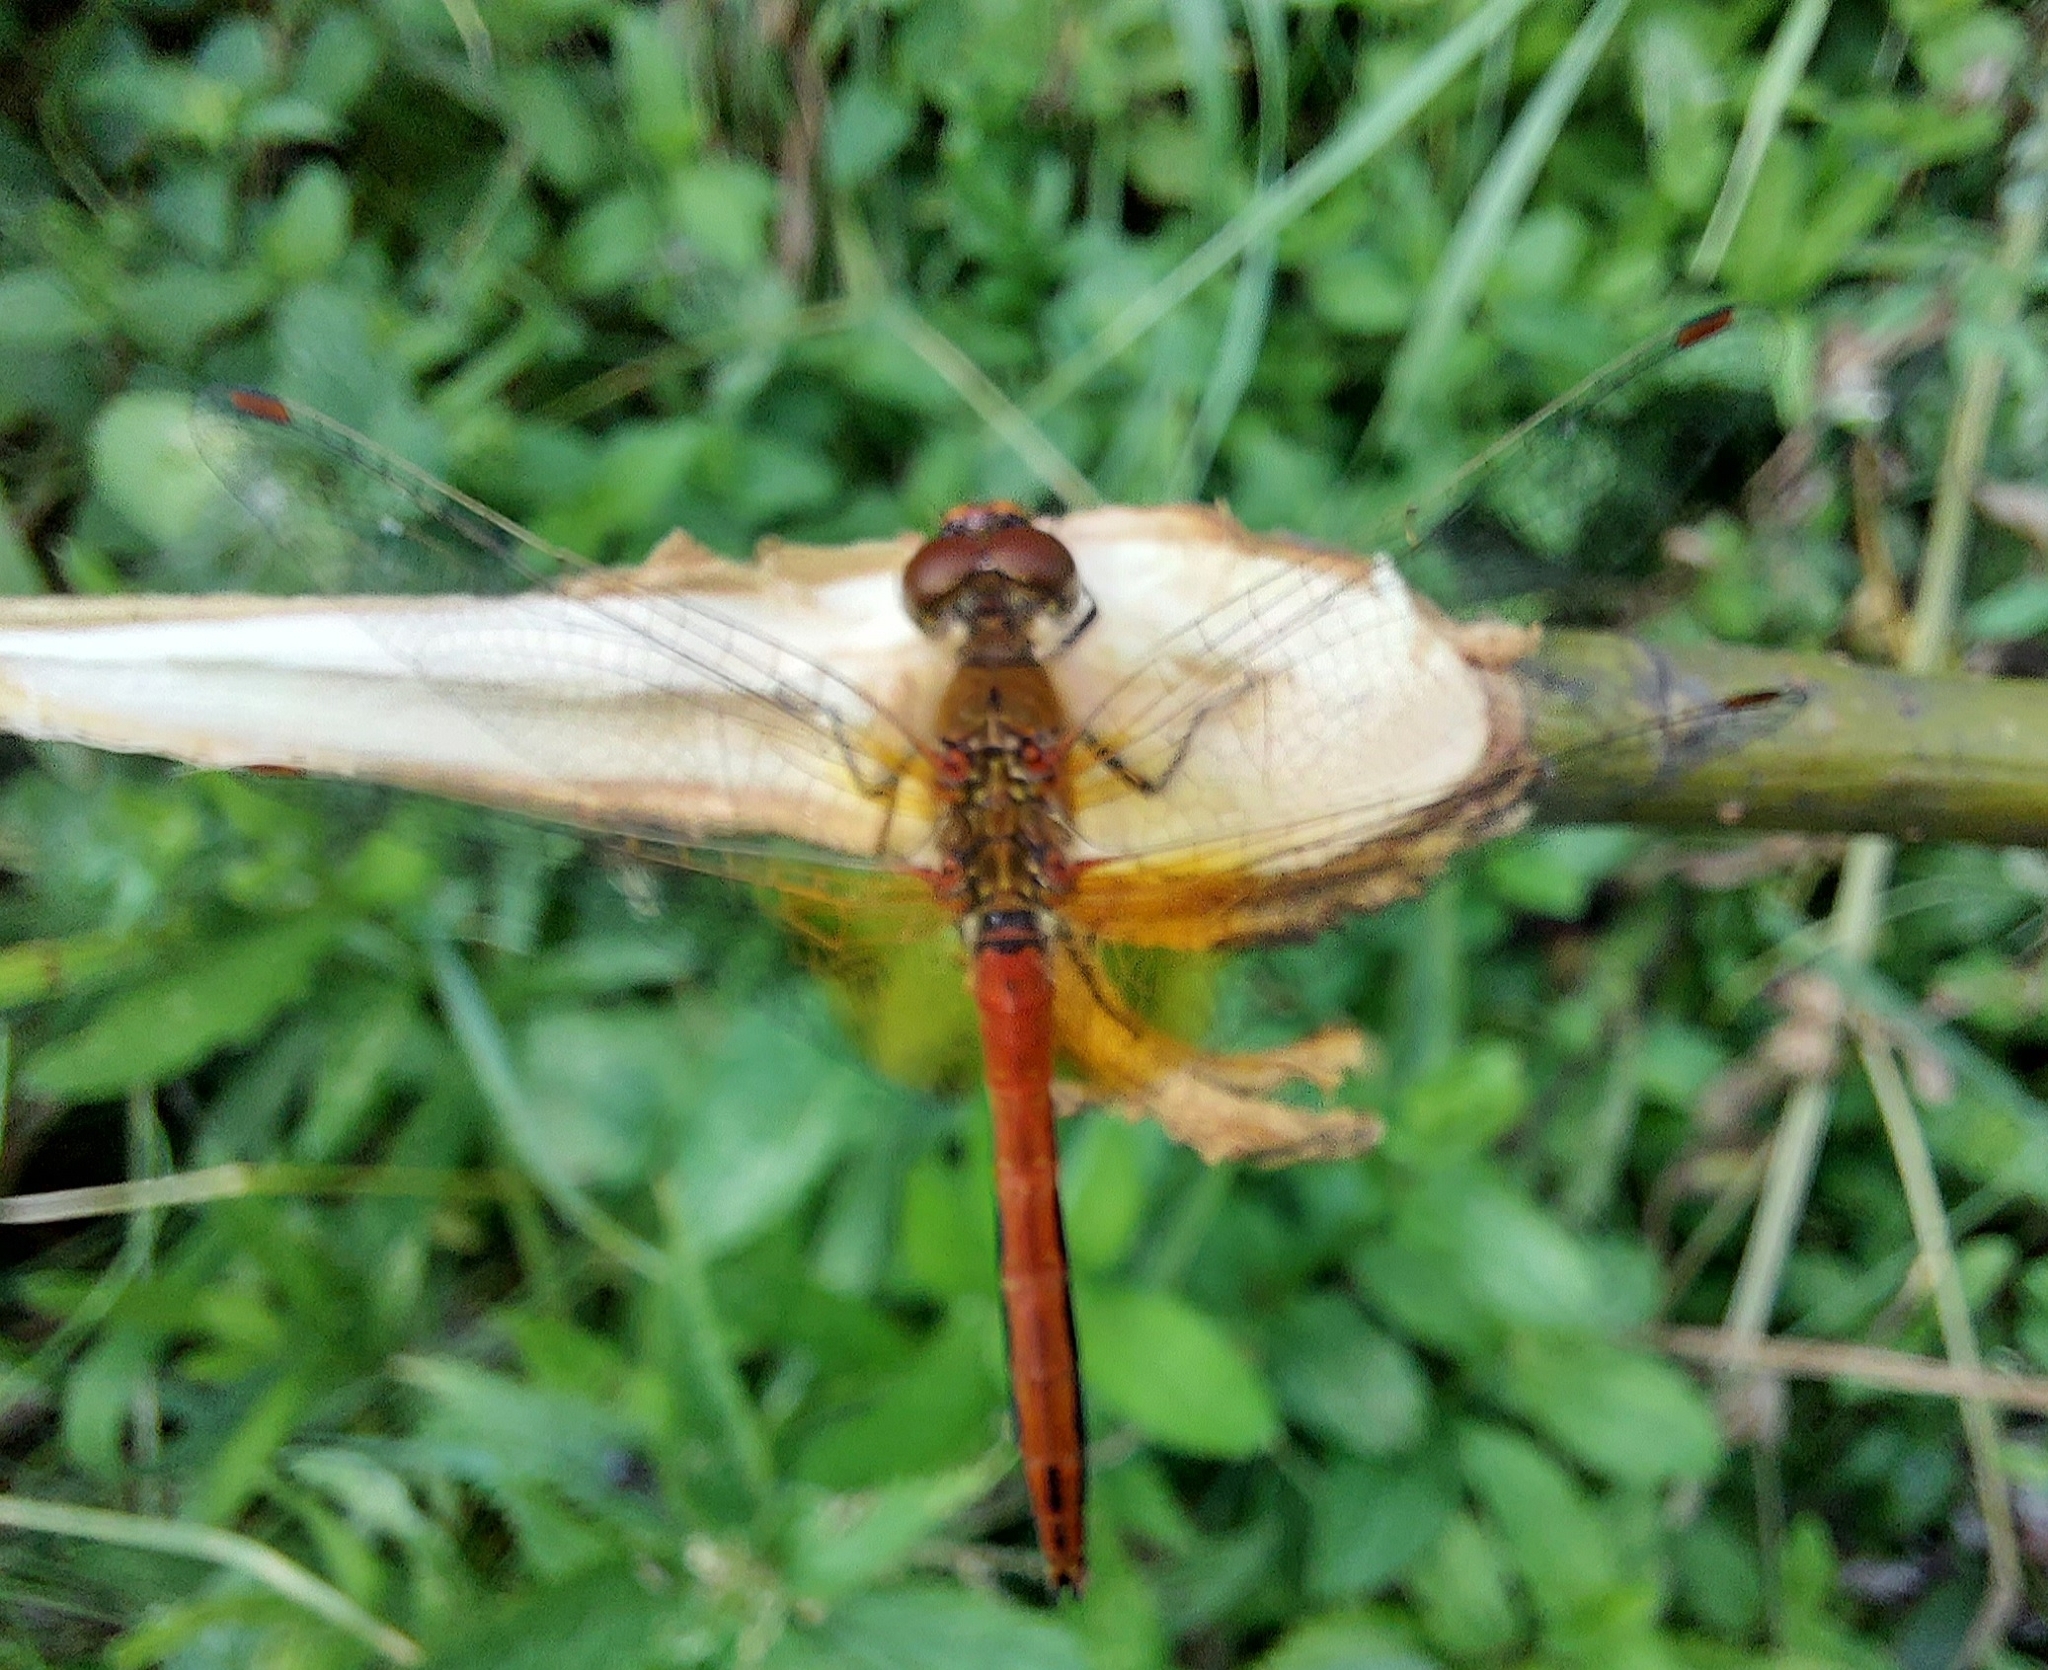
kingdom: Animalia
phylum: Arthropoda
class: Insecta
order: Odonata
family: Libellulidae
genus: Sympetrum
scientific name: Sympetrum flaveolum
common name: Yellow-winged darter
